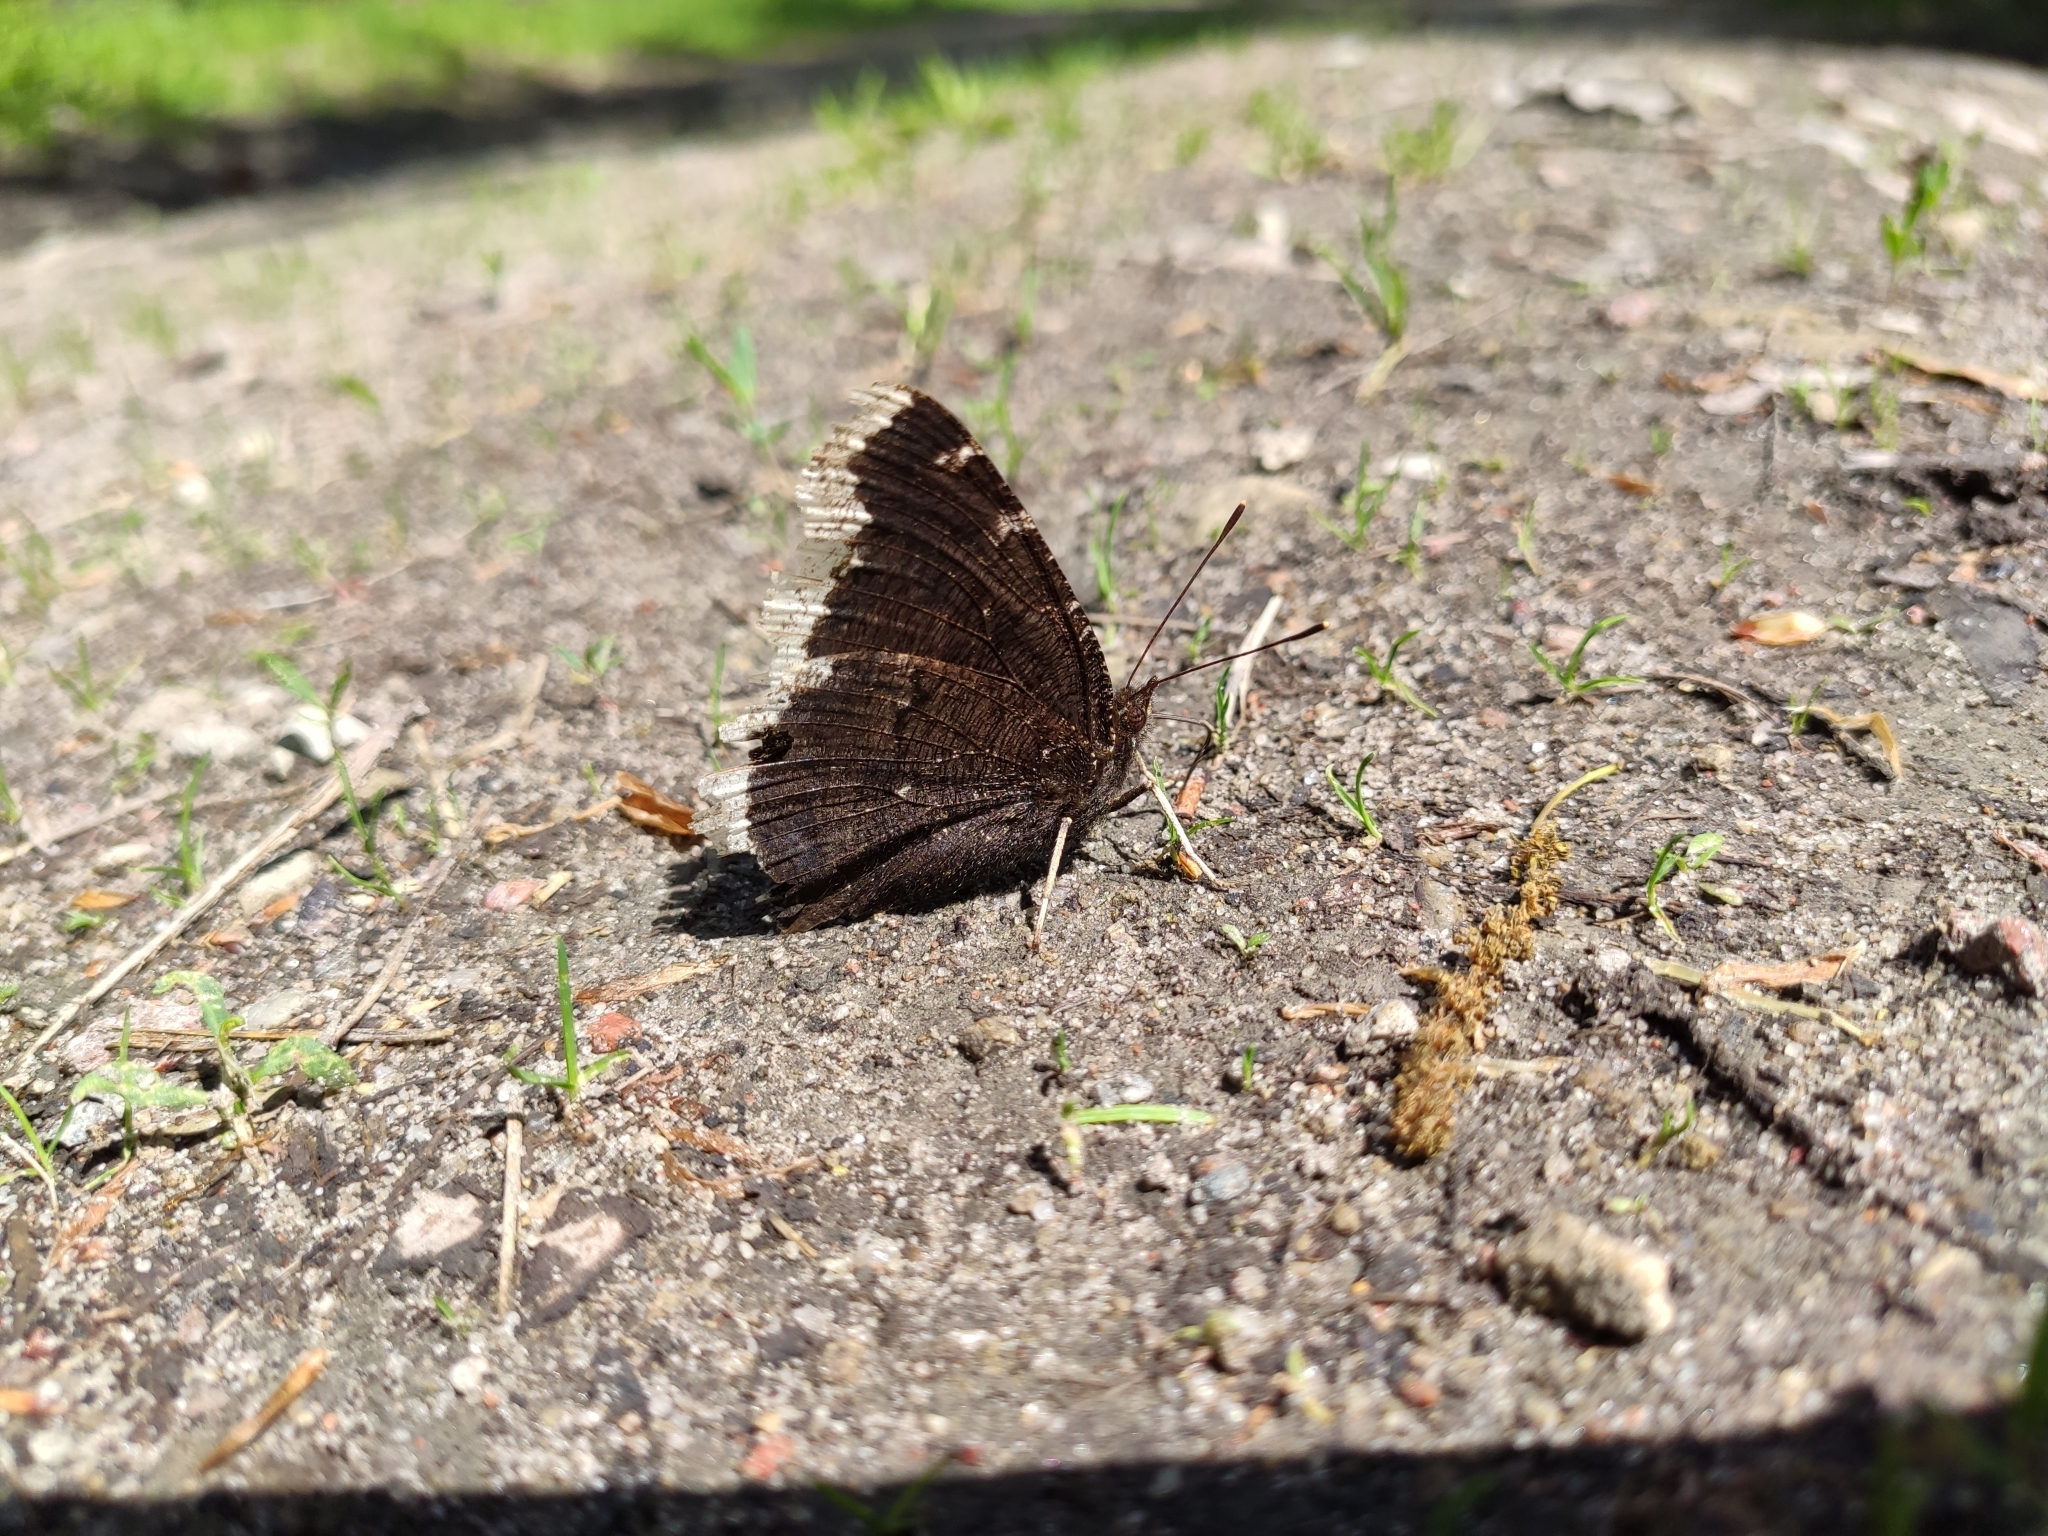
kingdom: Animalia
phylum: Arthropoda
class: Insecta
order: Lepidoptera
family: Nymphalidae
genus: Nymphalis
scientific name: Nymphalis antiopa
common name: Camberwell beauty
